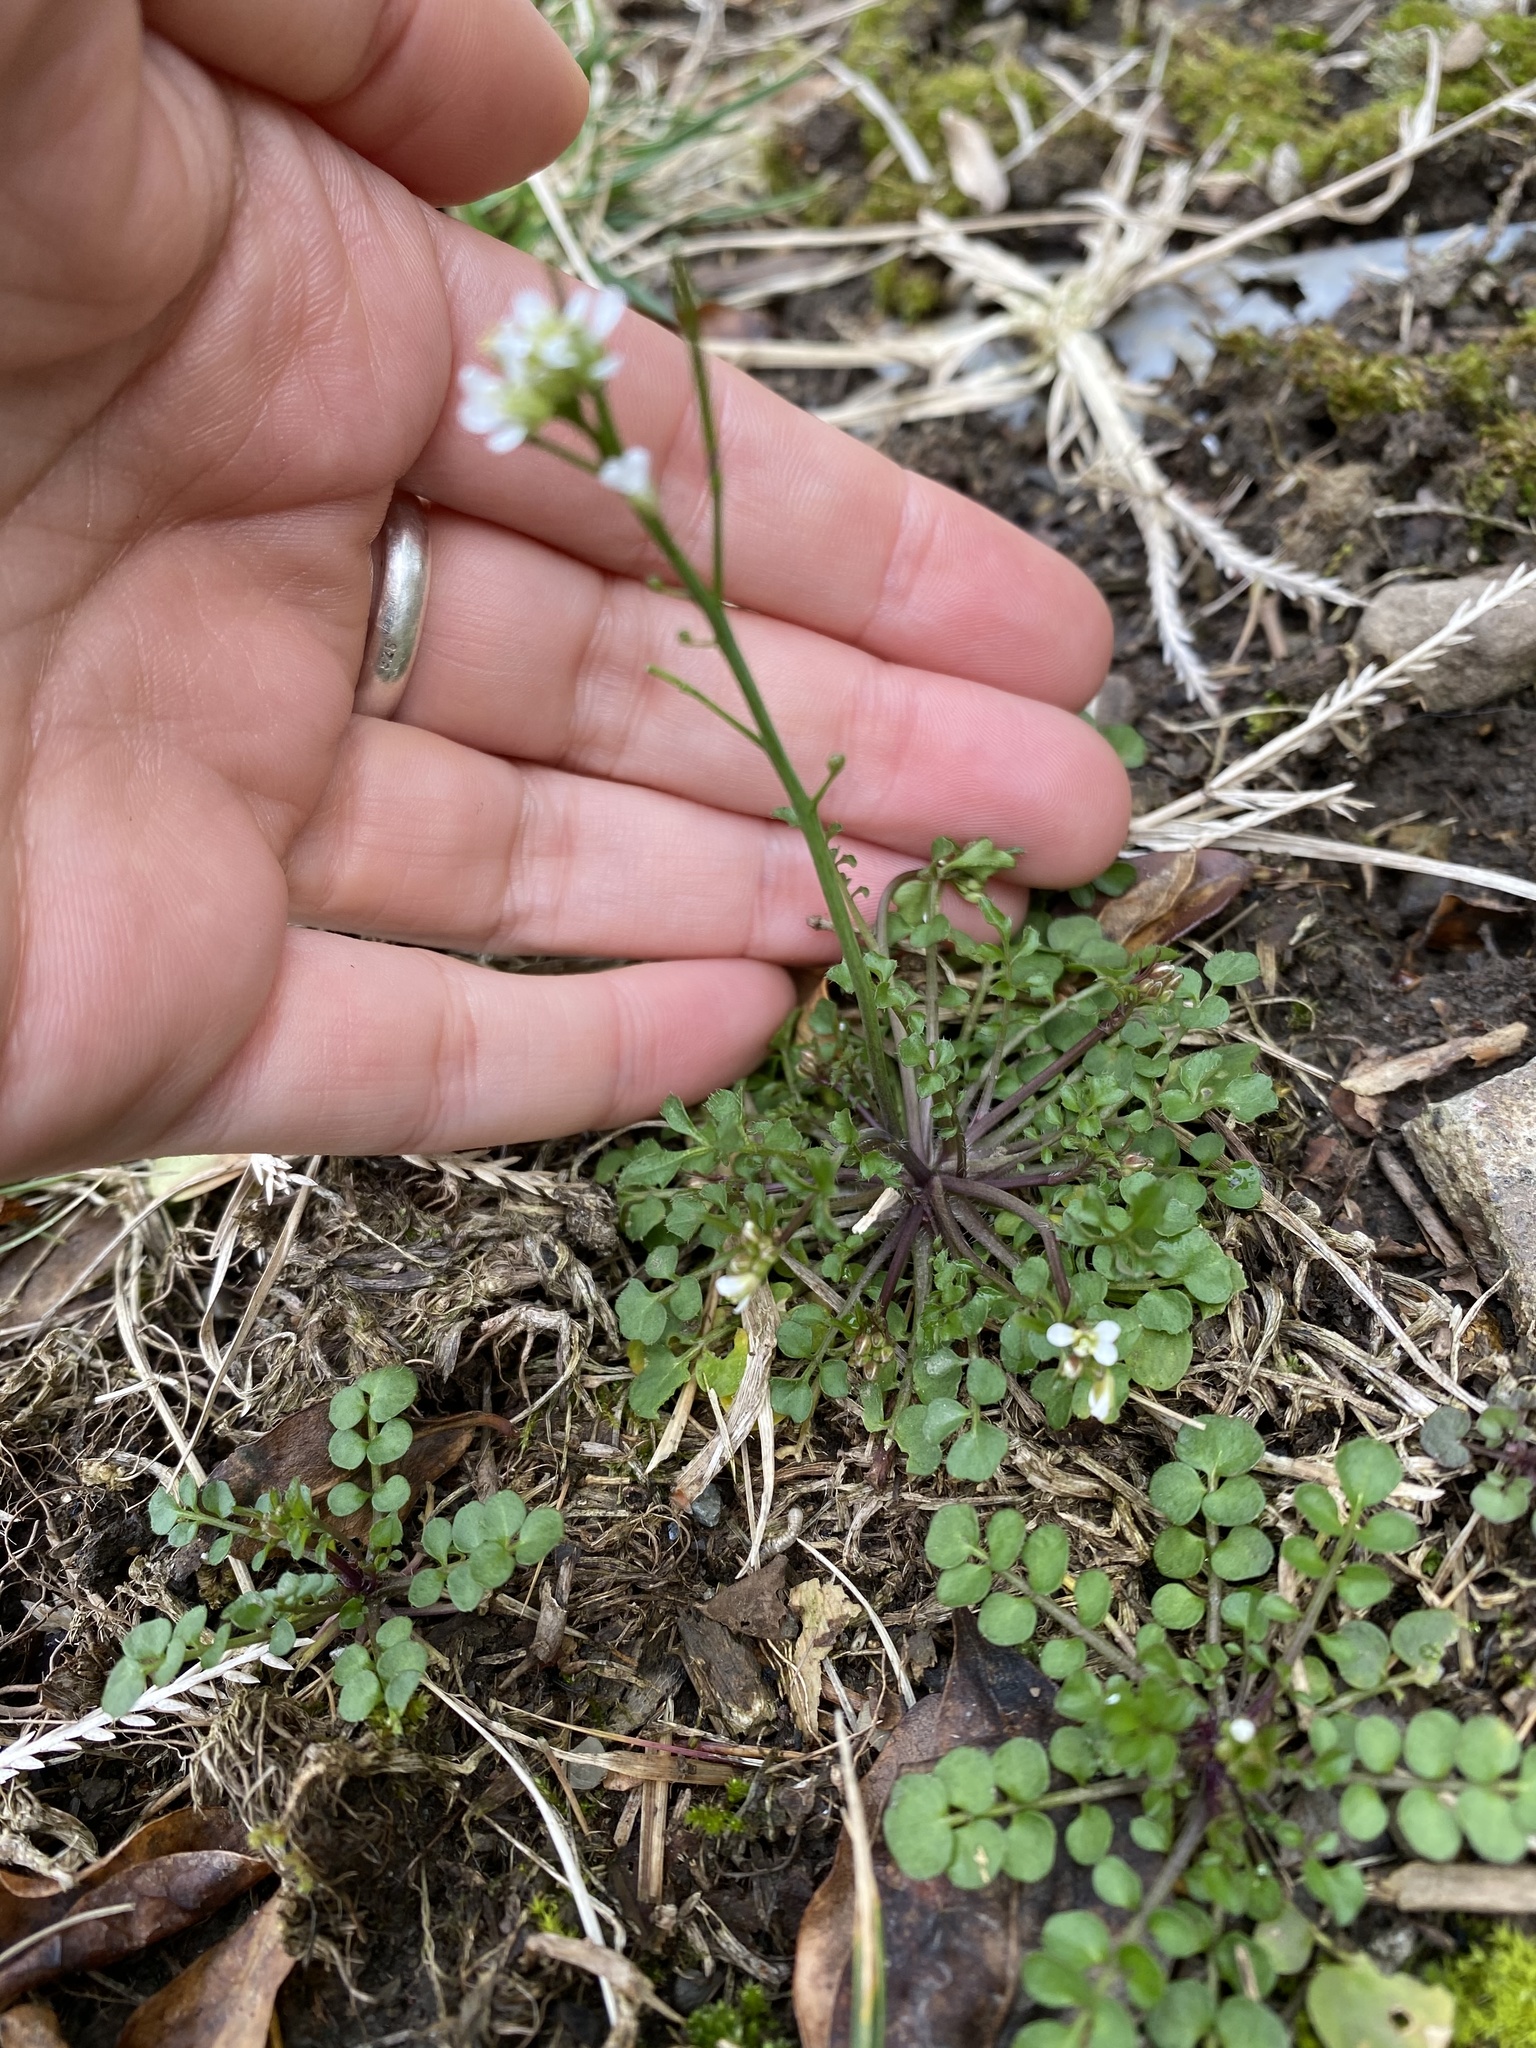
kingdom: Plantae
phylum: Tracheophyta
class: Magnoliopsida
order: Brassicales
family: Brassicaceae
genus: Cardamine
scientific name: Cardamine hirsuta
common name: Hairy bittercress
